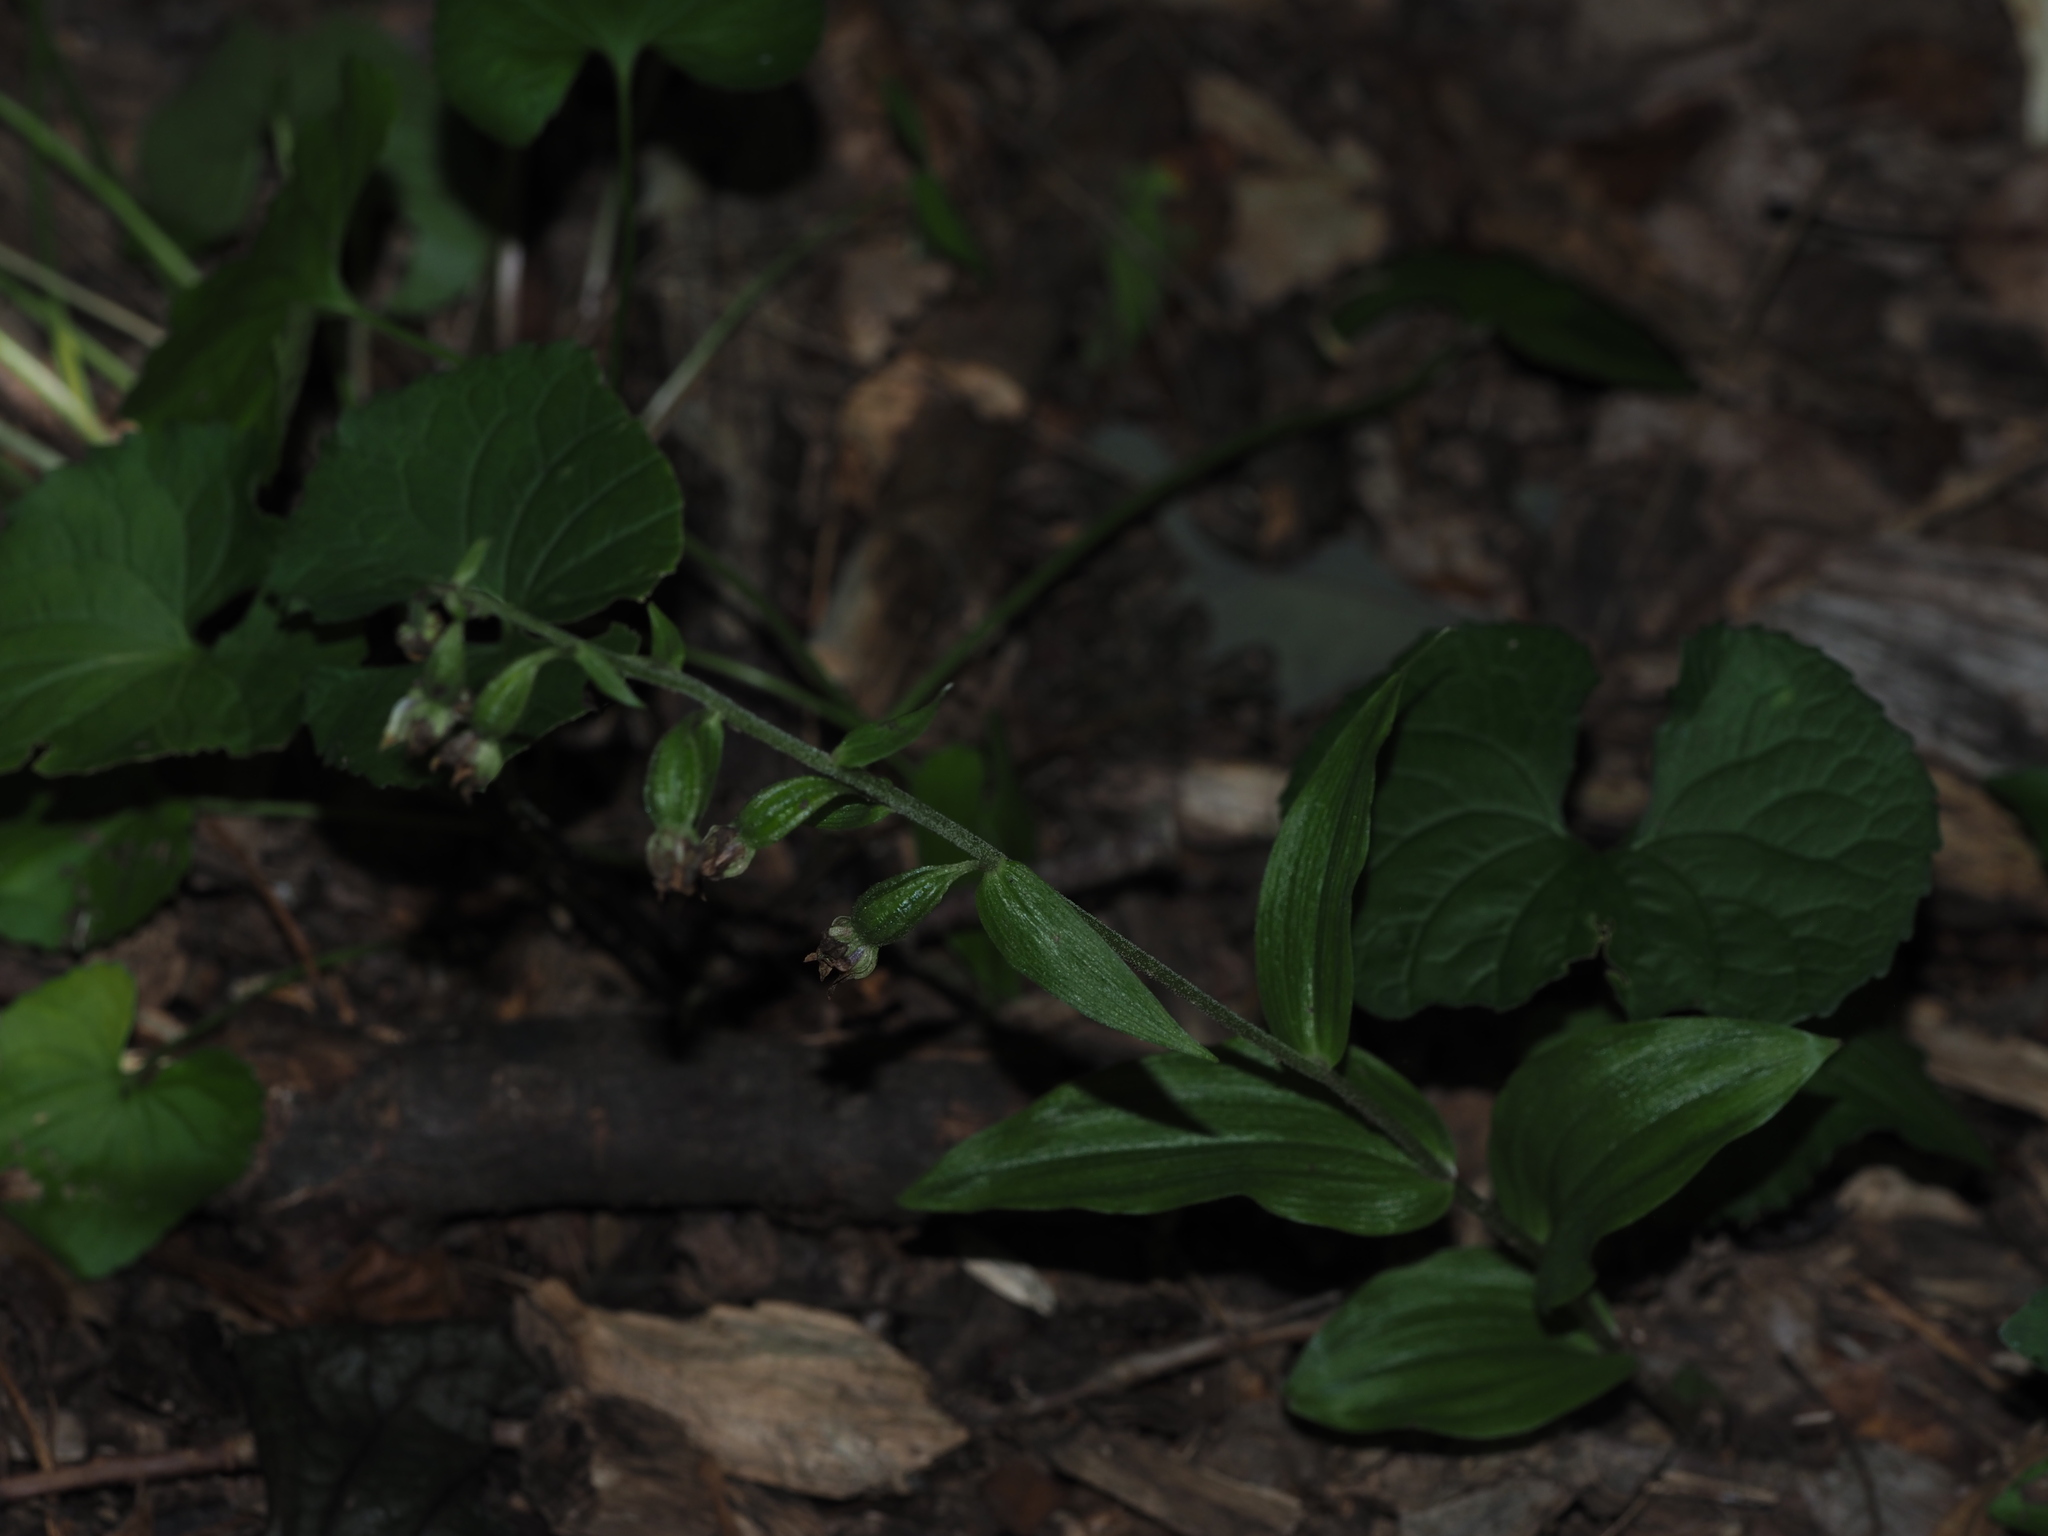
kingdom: Plantae
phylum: Tracheophyta
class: Liliopsida
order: Asparagales
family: Orchidaceae
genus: Epipactis
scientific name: Epipactis helleborine
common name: Broad-leaved helleborine
